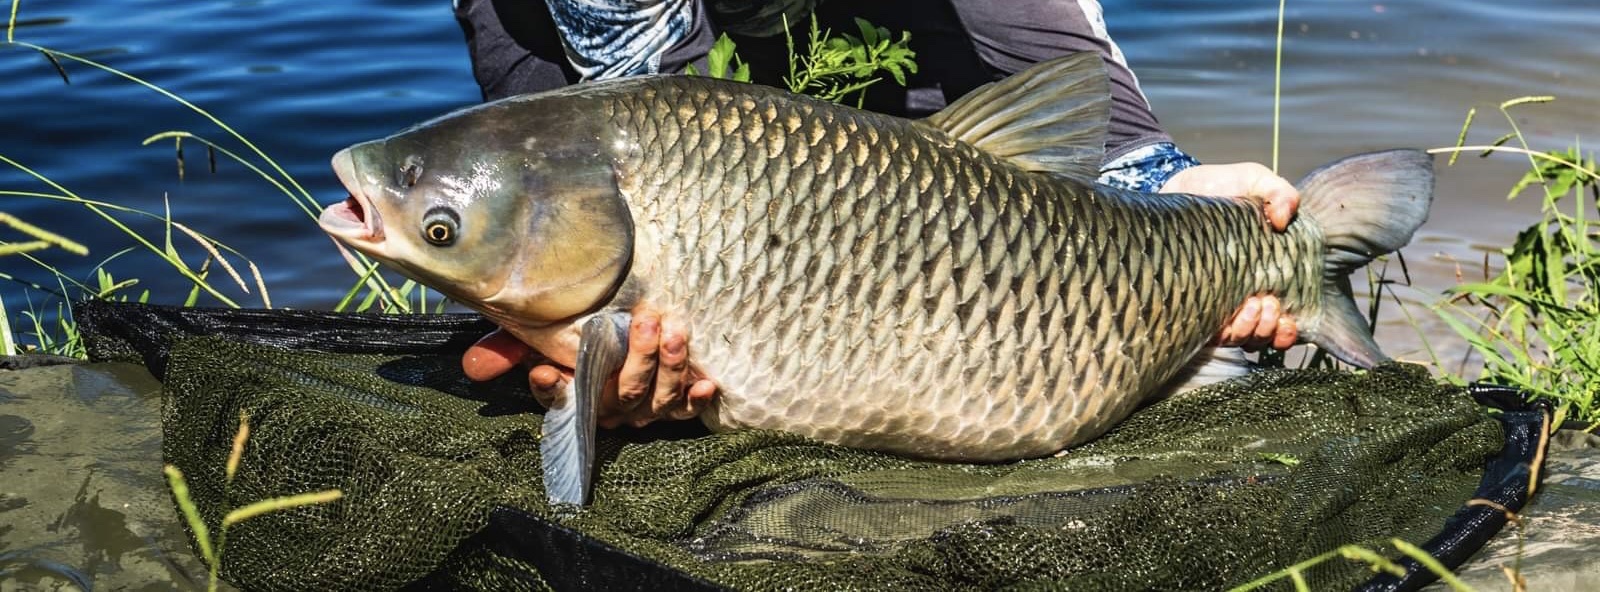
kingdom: Animalia
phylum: Chordata
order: Cypriniformes
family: Cyprinidae
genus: Ctenopharyngodon
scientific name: Ctenopharyngodon idella
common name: Grass carp
